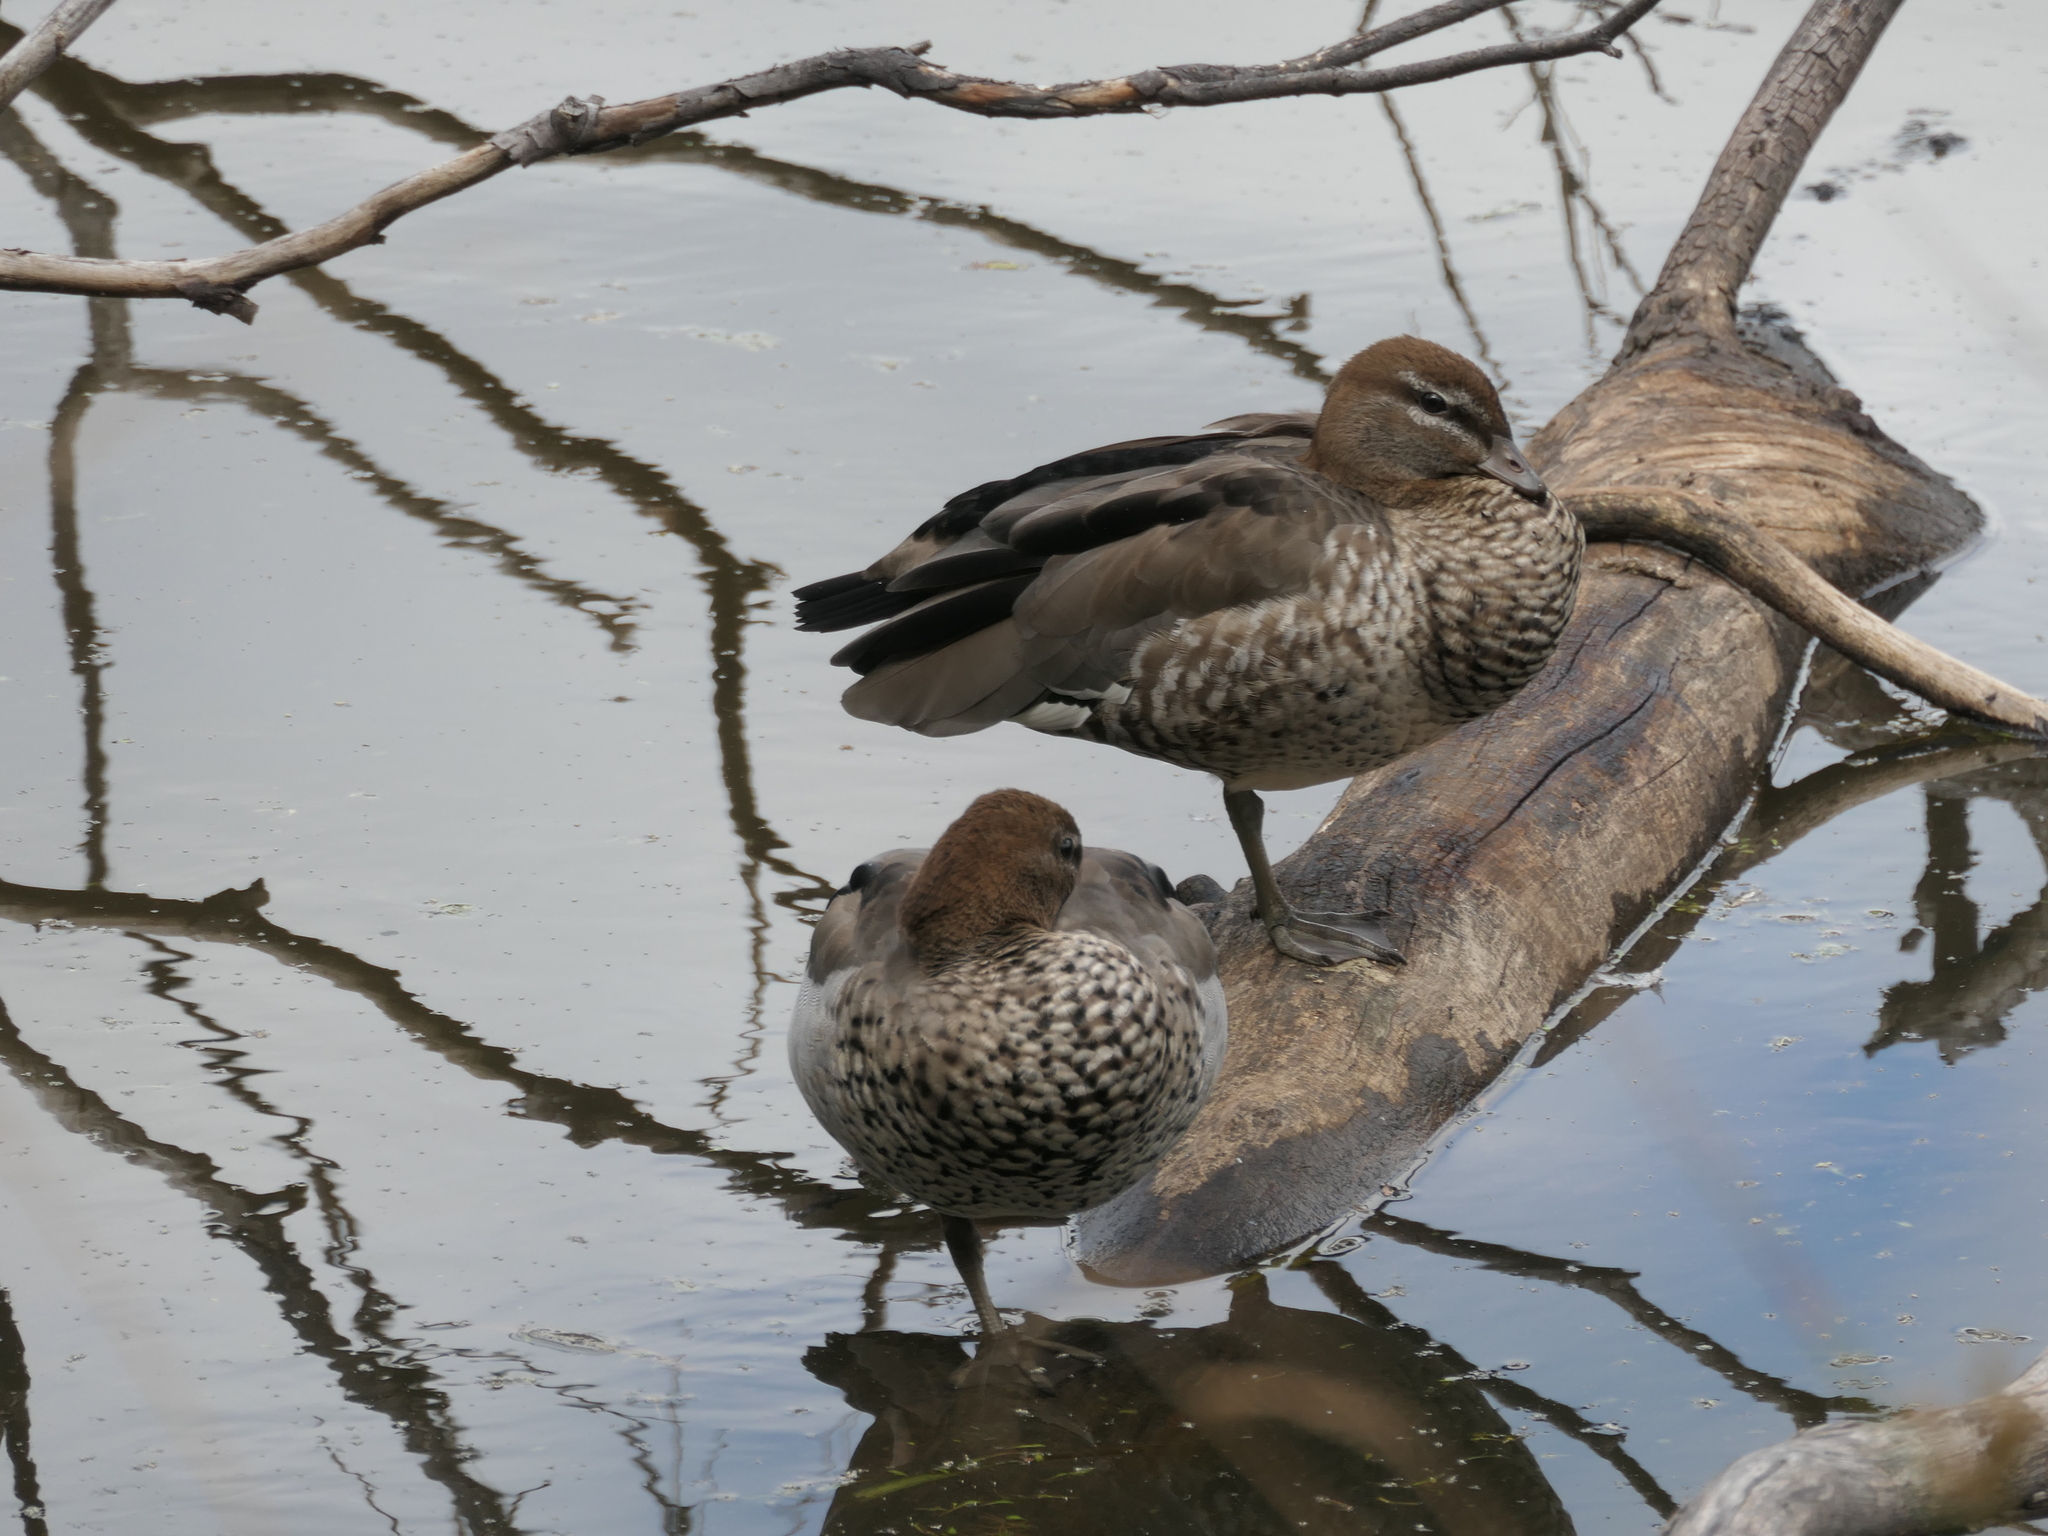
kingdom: Animalia
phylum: Chordata
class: Aves
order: Anseriformes
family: Anatidae
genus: Chenonetta
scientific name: Chenonetta jubata
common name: Maned duck
